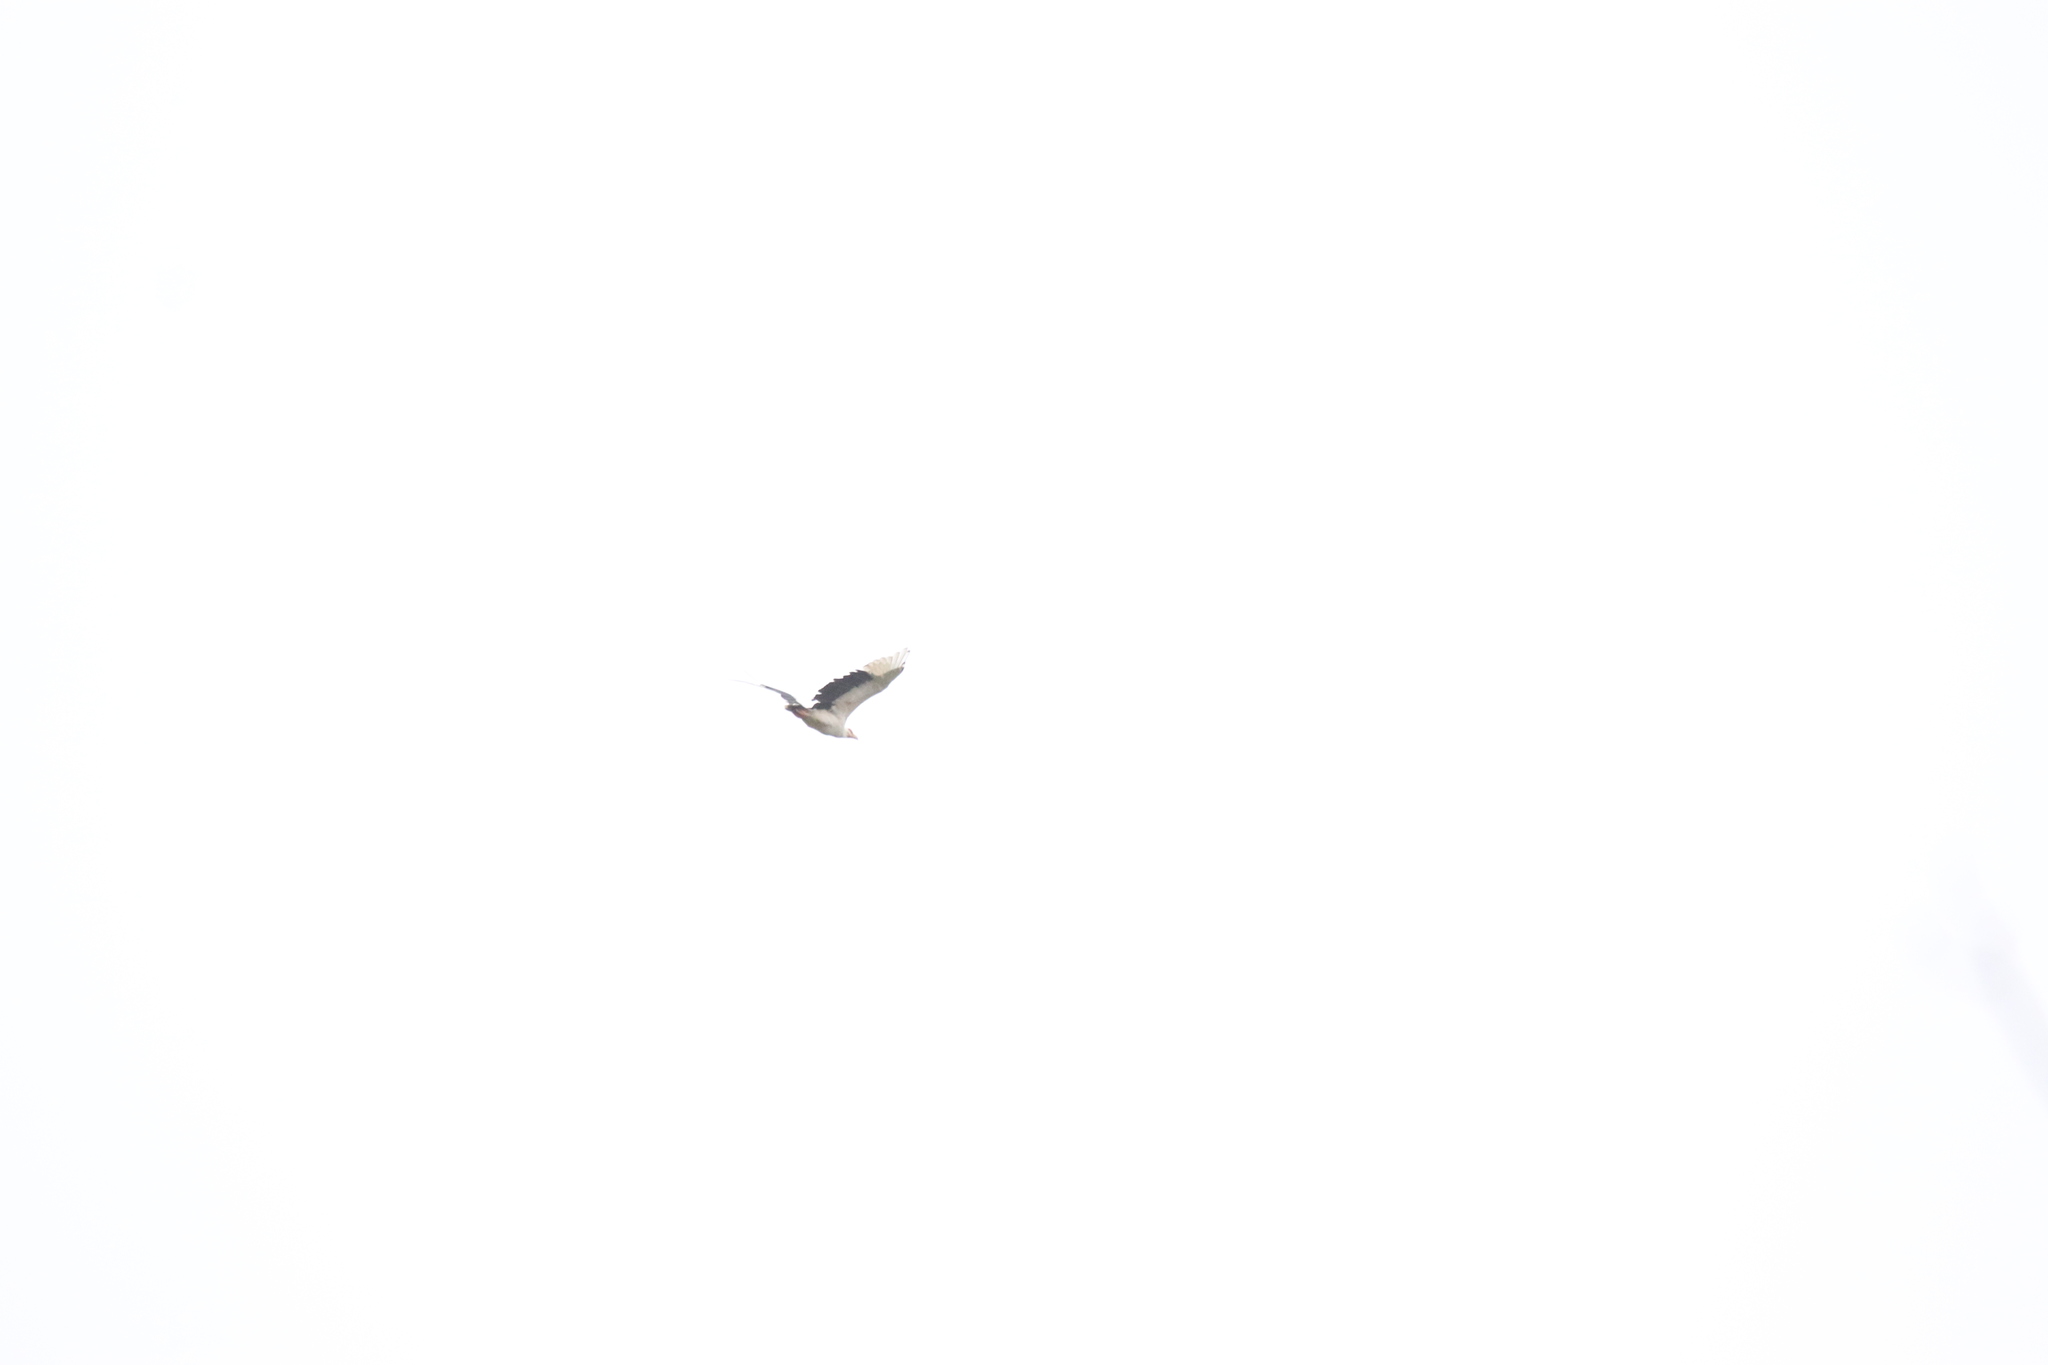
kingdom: Animalia
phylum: Chordata
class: Aves
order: Accipitriformes
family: Accipitridae
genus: Gypohierax
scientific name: Gypohierax angolensis
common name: Palm-nut vulture
